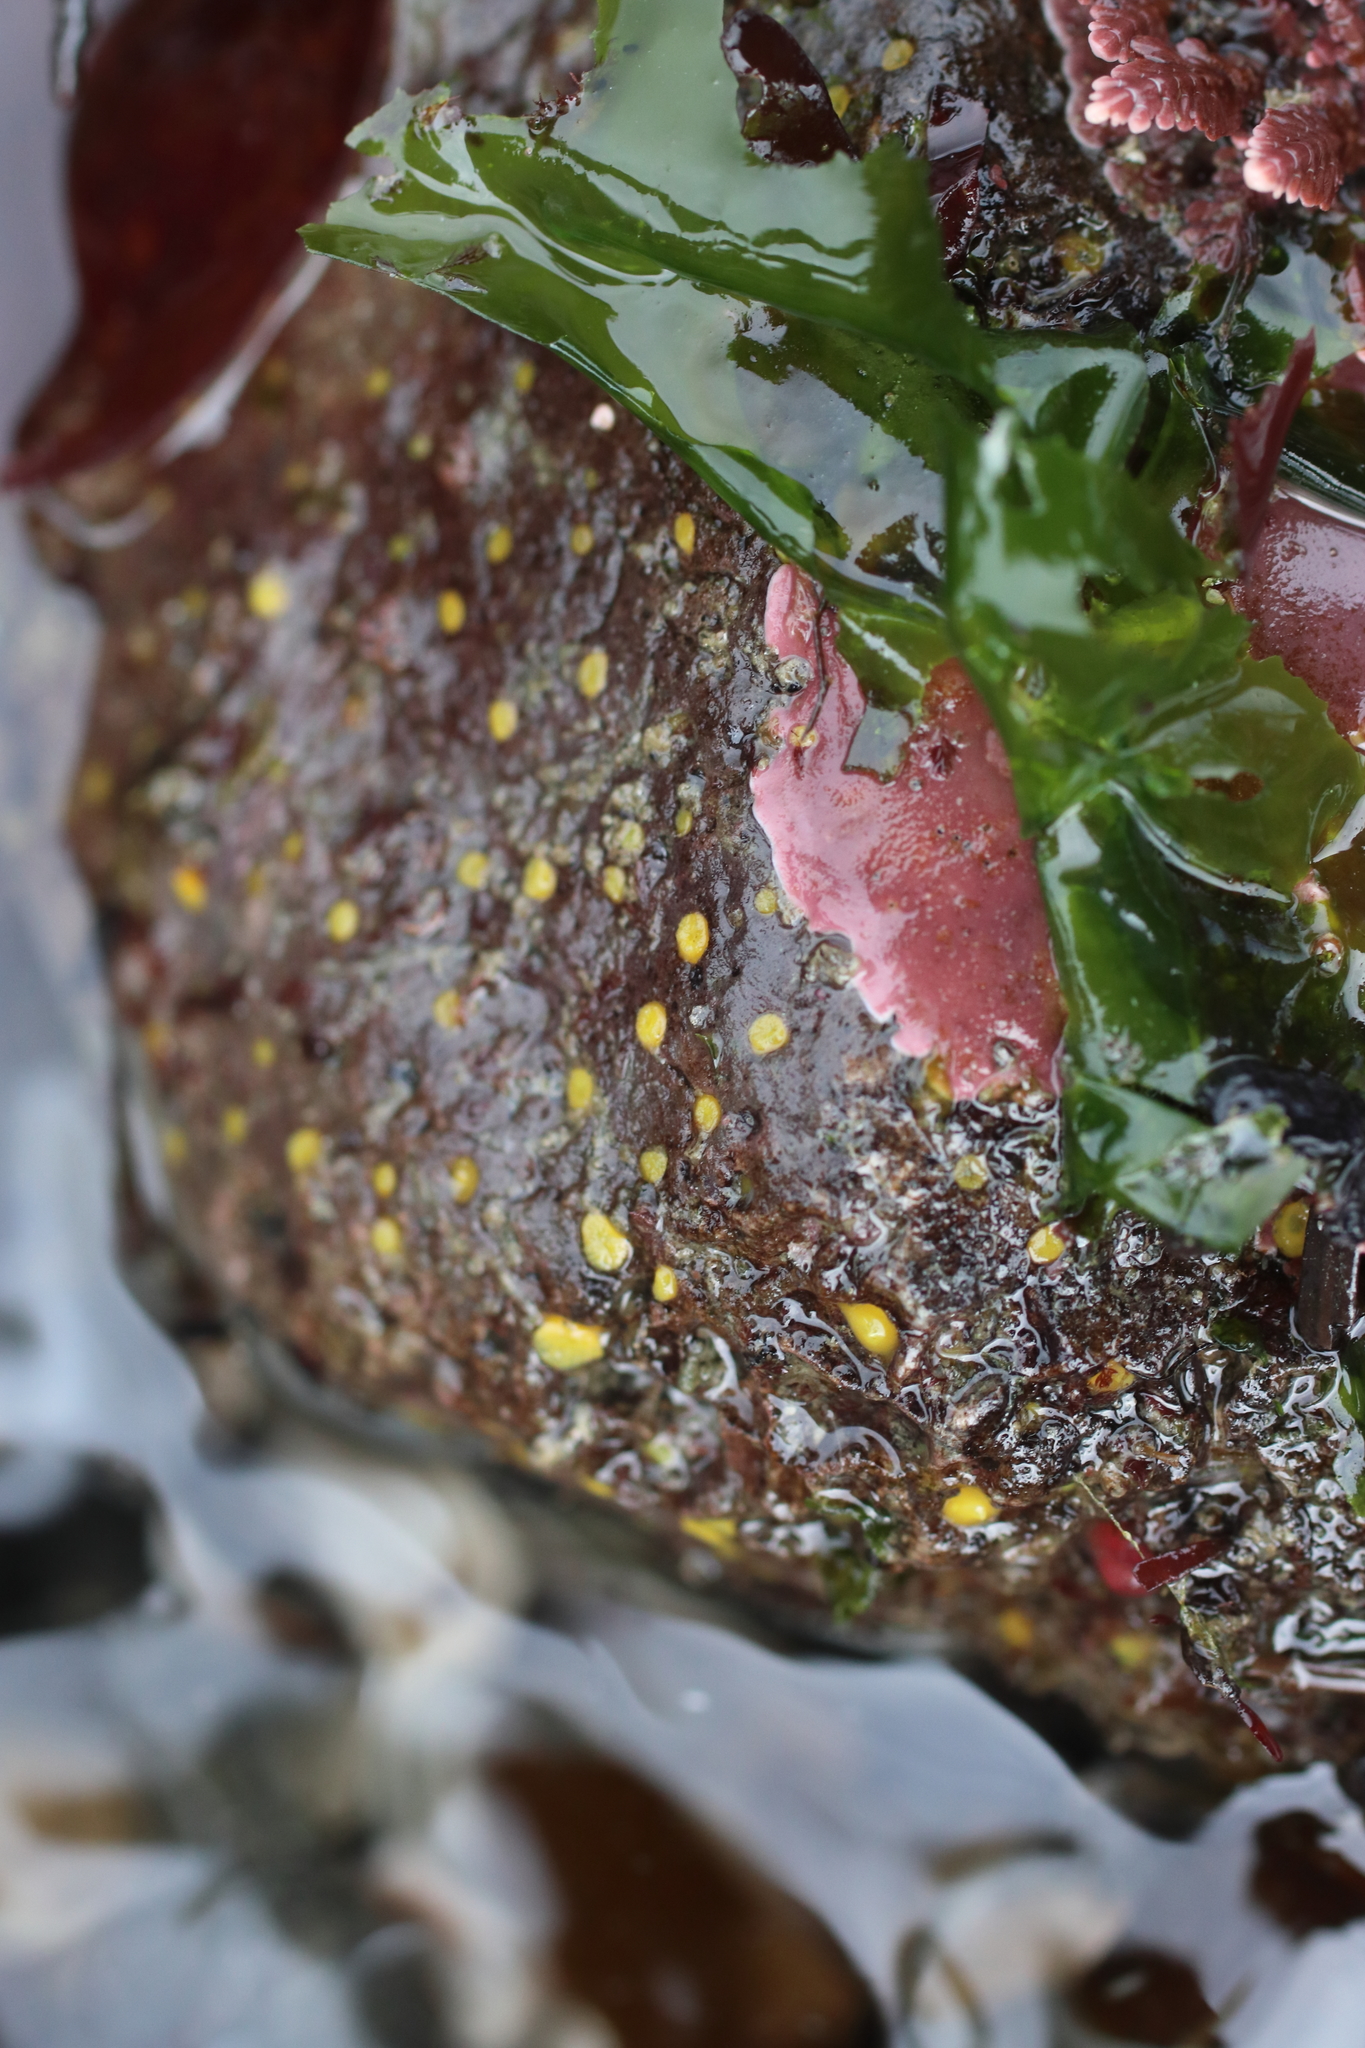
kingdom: Animalia
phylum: Porifera
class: Demospongiae
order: Clionaida
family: Clionaidae
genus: Cliona
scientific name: Cliona californiana
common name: California boring horny sponge
